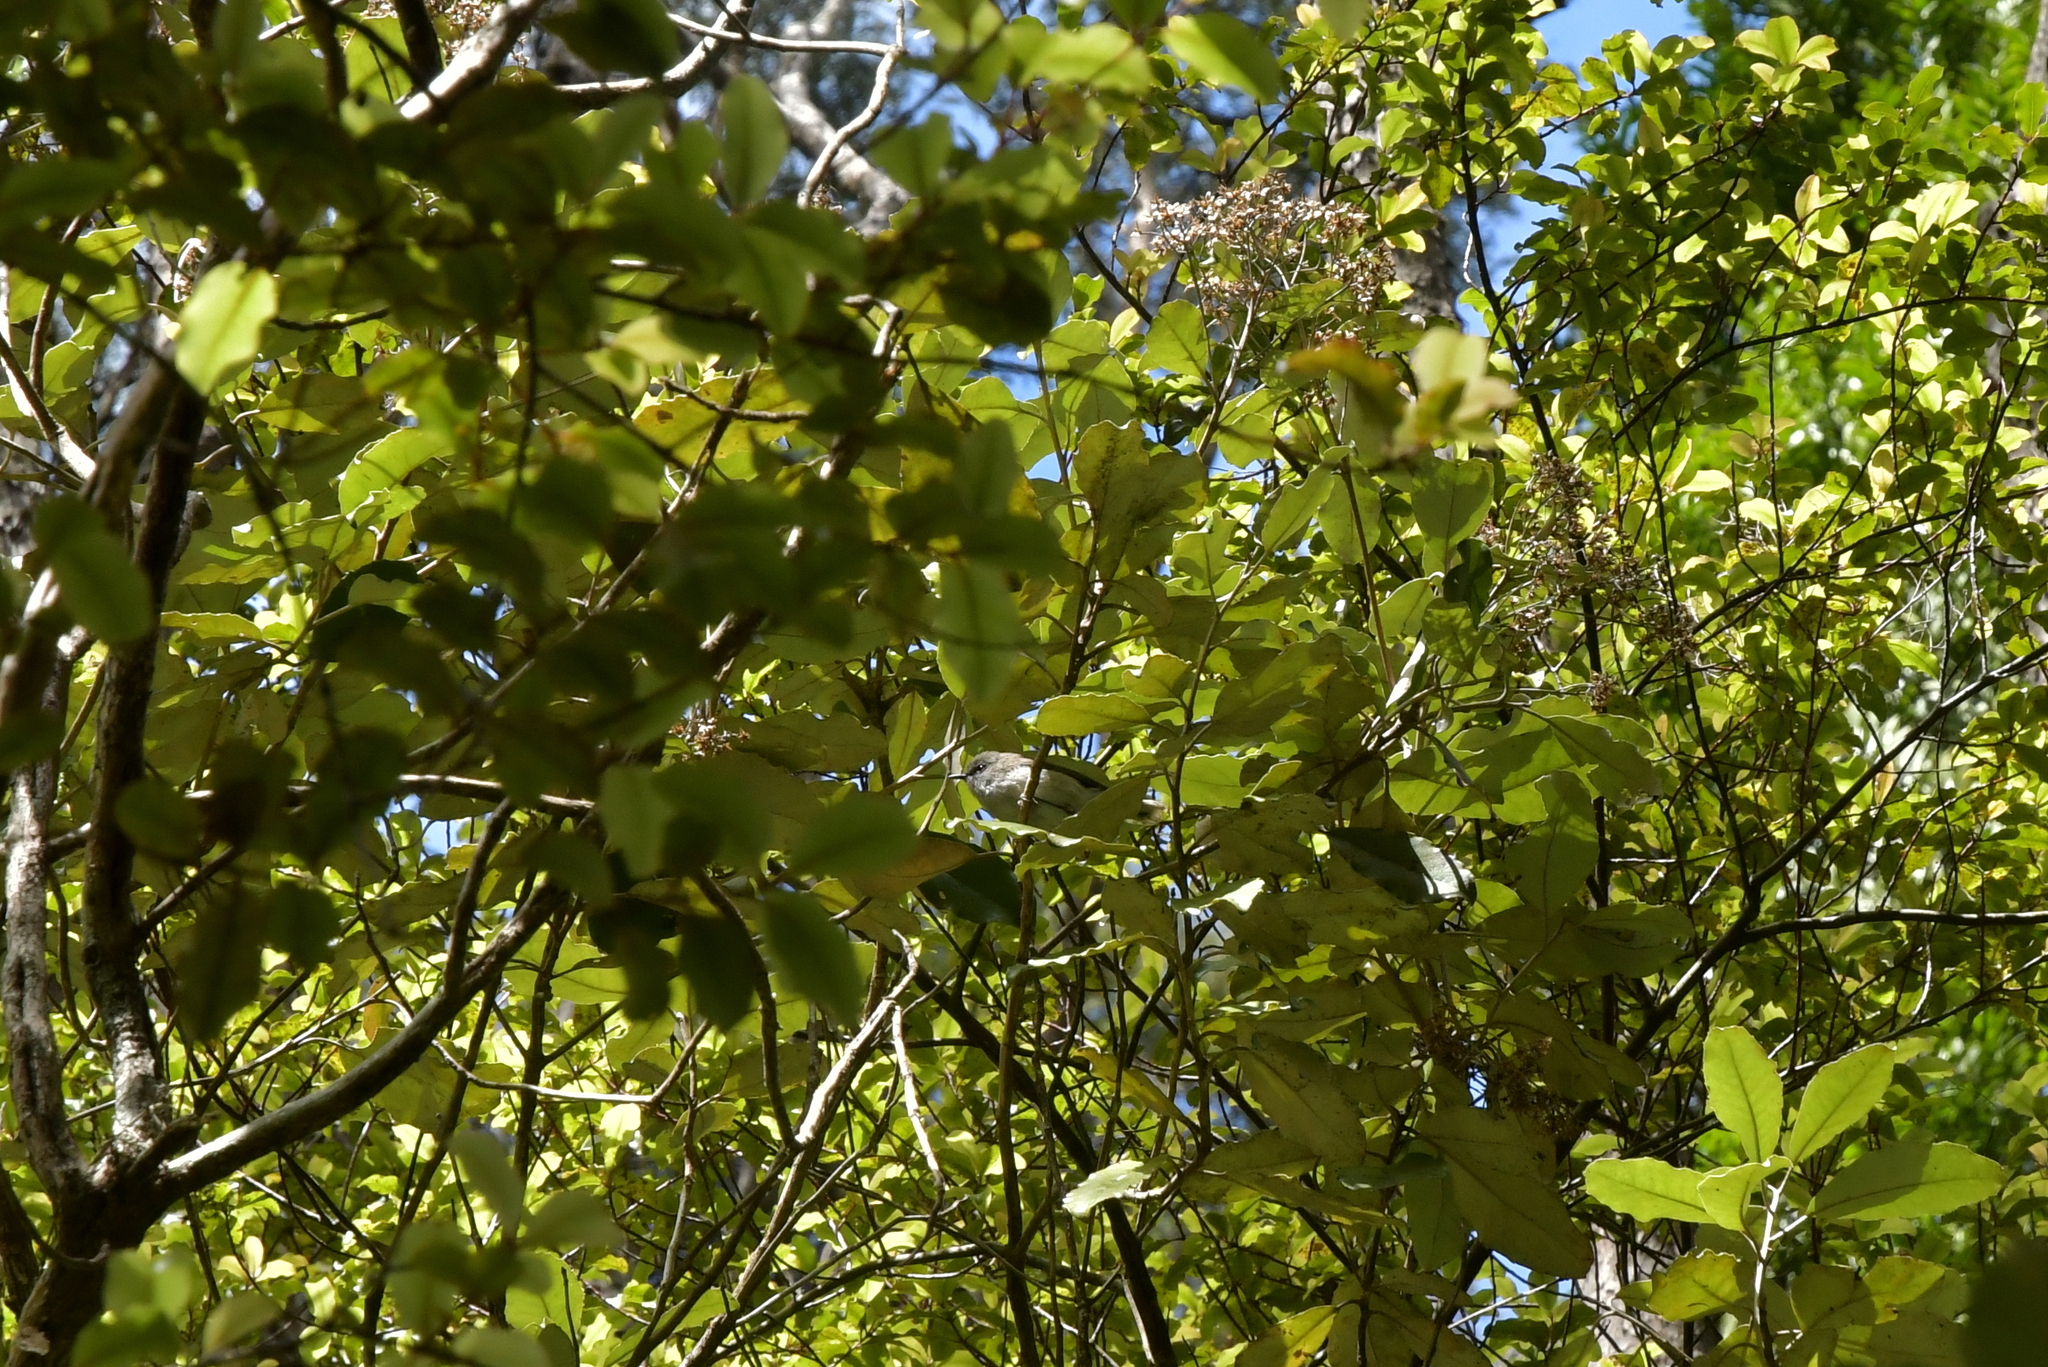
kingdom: Animalia
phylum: Chordata
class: Aves
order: Passeriformes
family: Acanthizidae
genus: Gerygone
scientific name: Gerygone igata
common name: Grey gerygone
